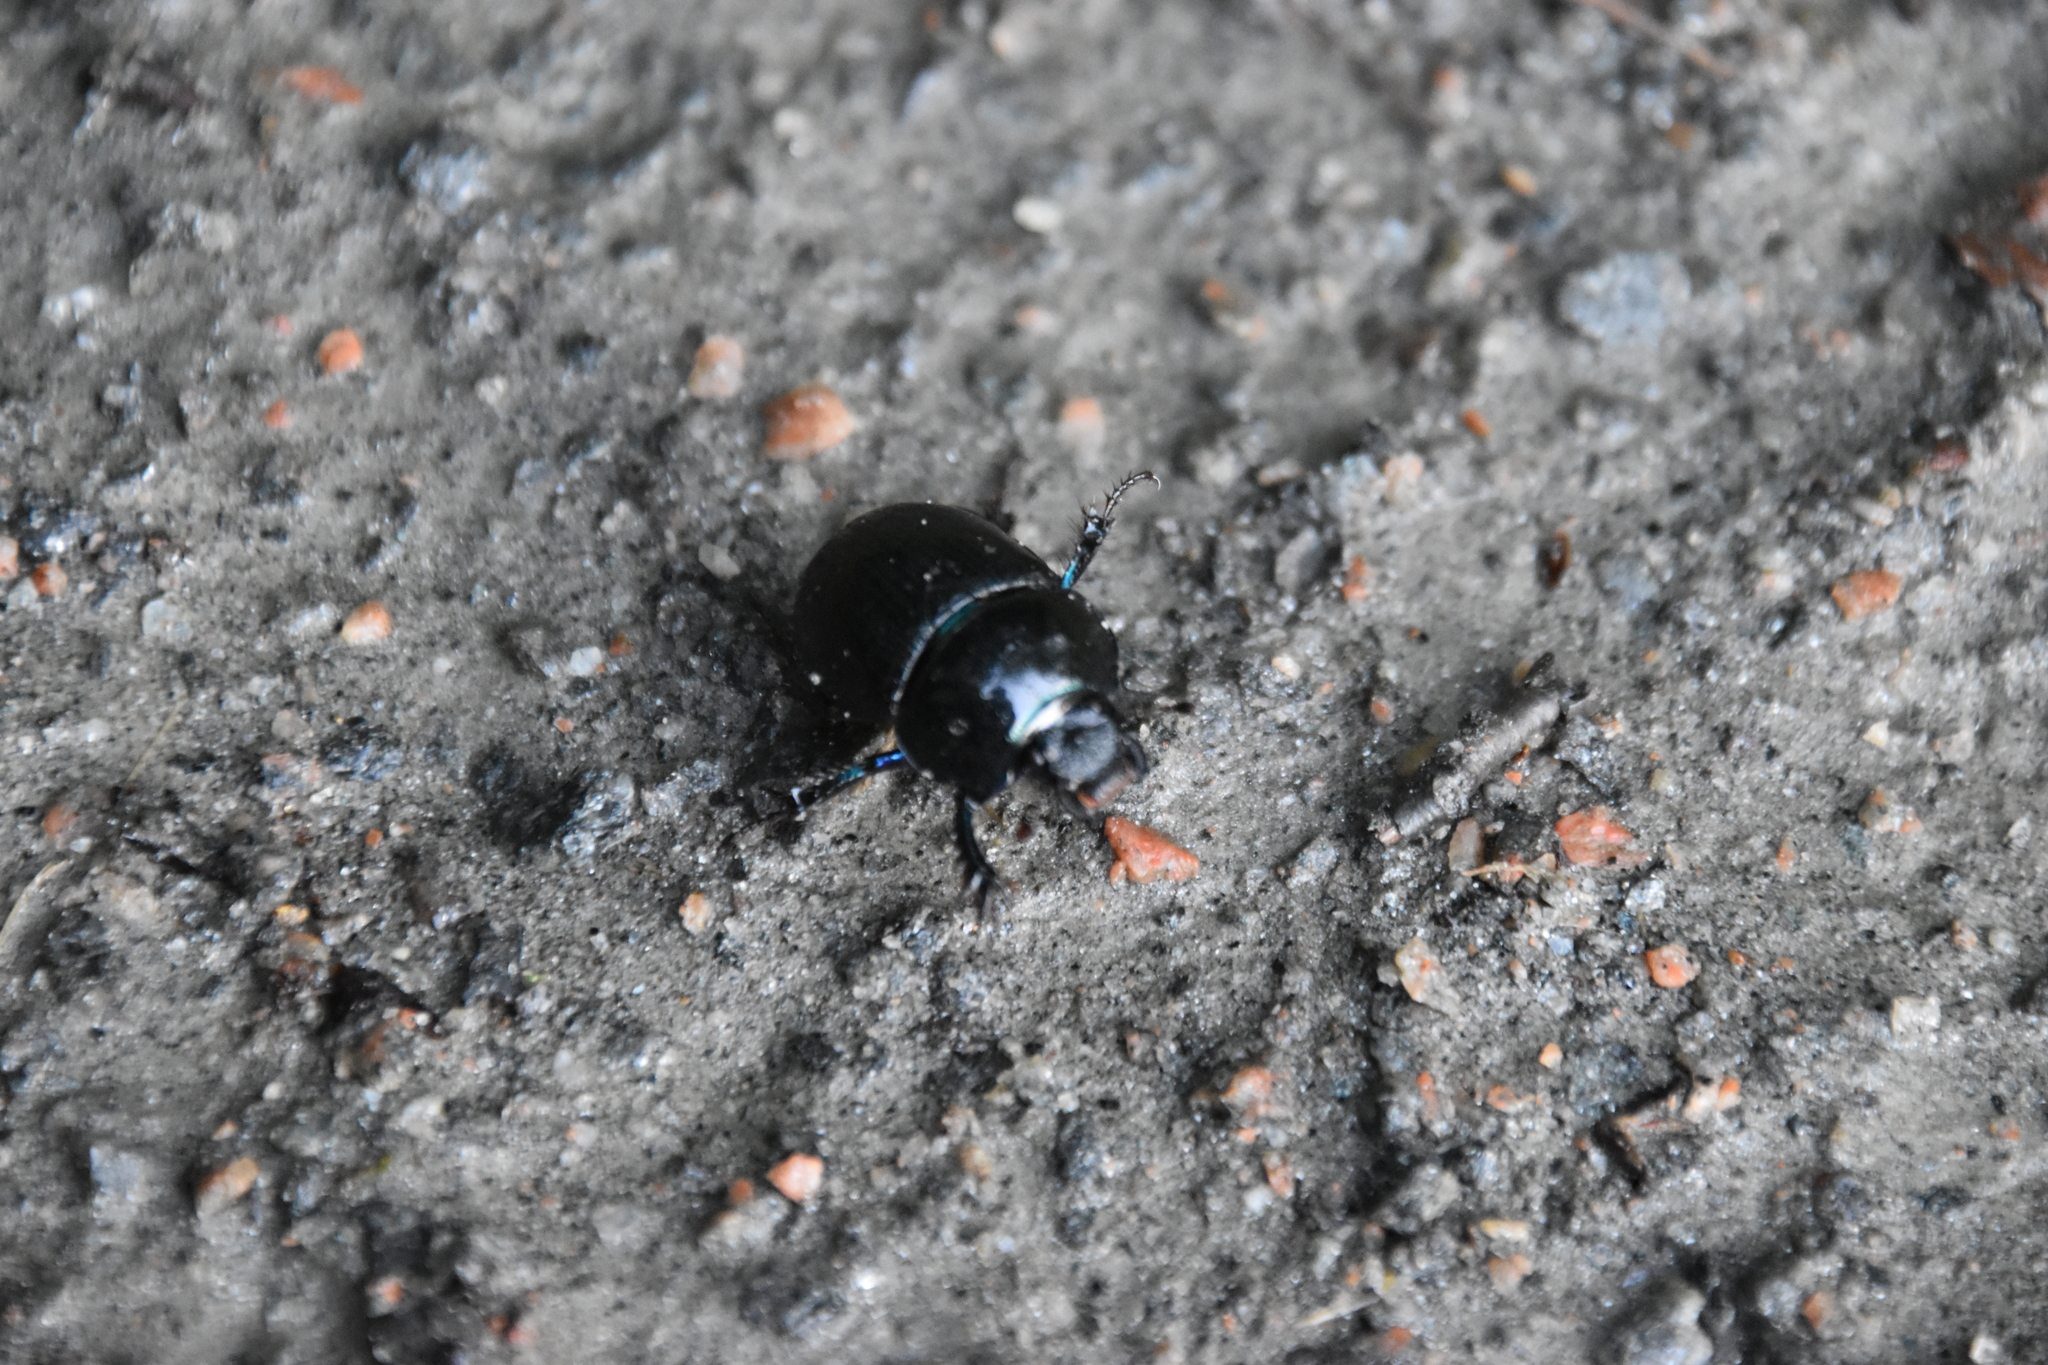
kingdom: Animalia
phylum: Arthropoda
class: Insecta
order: Coleoptera
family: Geotrupidae
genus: Anoplotrupes
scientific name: Anoplotrupes stercorosus
